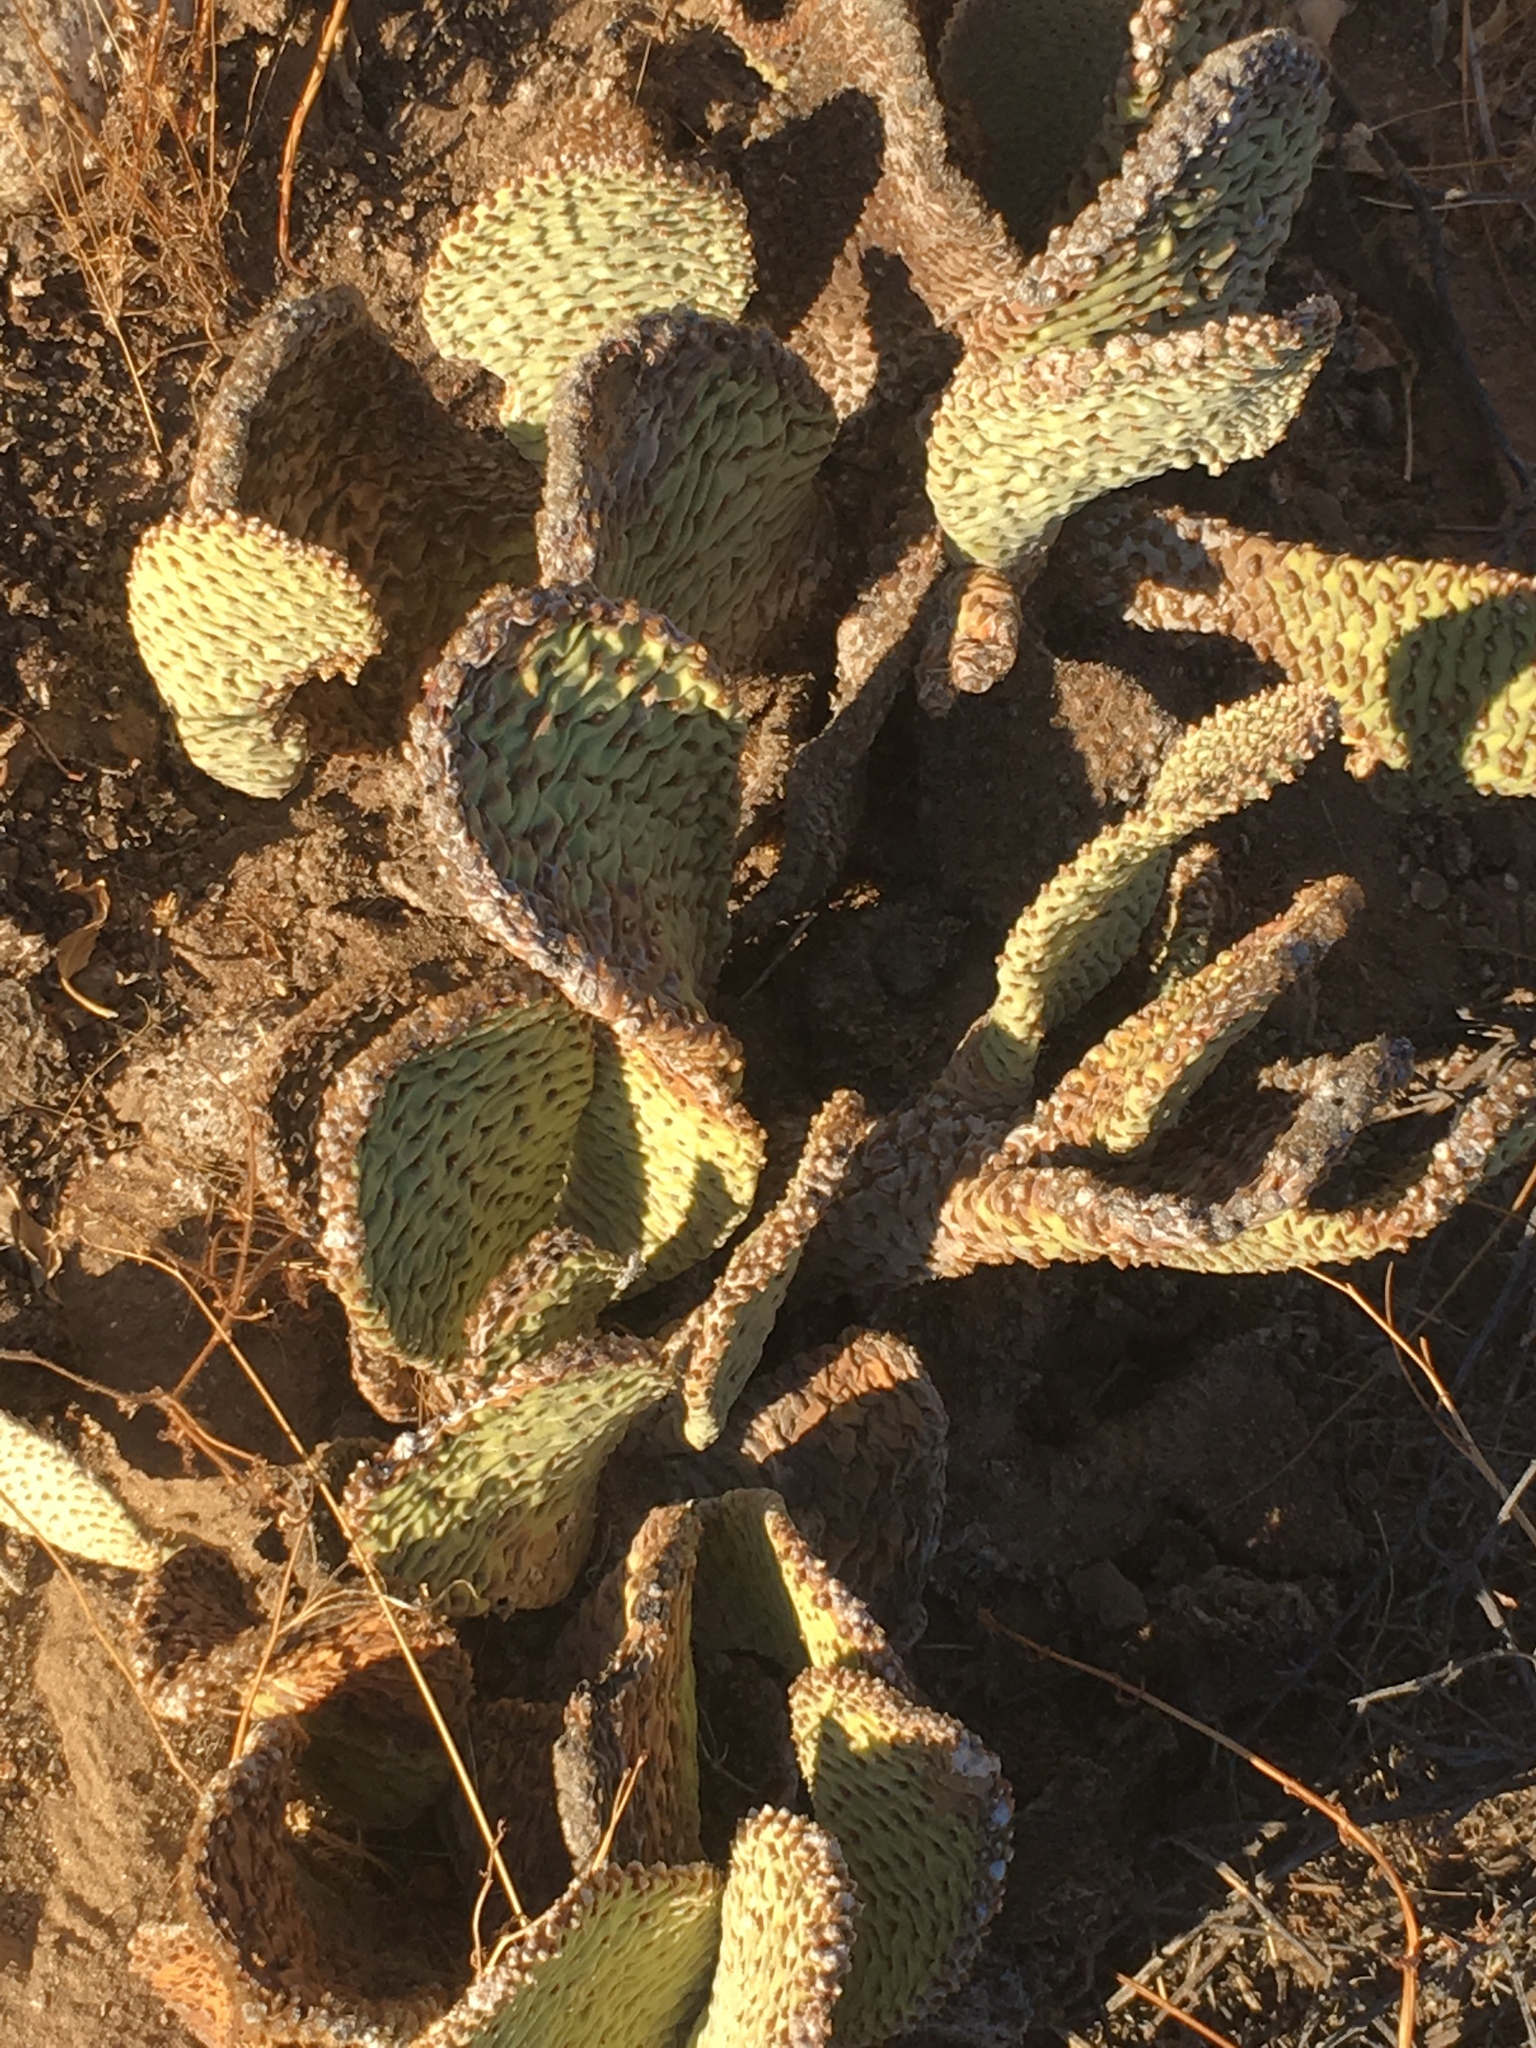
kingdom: Plantae
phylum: Tracheophyta
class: Magnoliopsida
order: Caryophyllales
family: Cactaceae
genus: Opuntia
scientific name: Opuntia basilaris
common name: Beavertail prickly-pear
